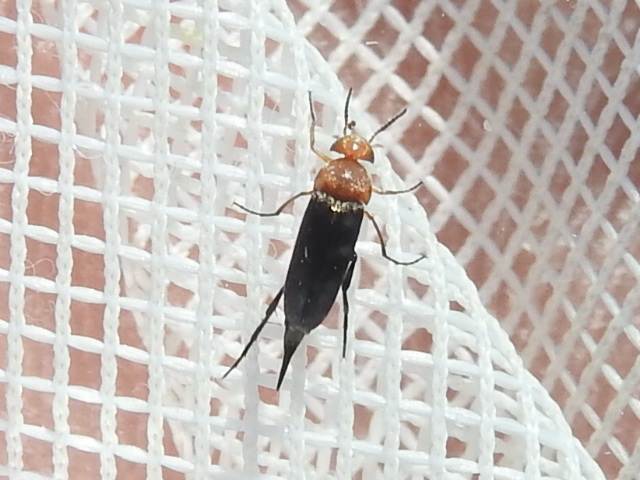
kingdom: Animalia
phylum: Arthropoda
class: Insecta
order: Coleoptera
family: Mordellidae
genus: Mordellistena
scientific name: Mordellistena cervicalis
